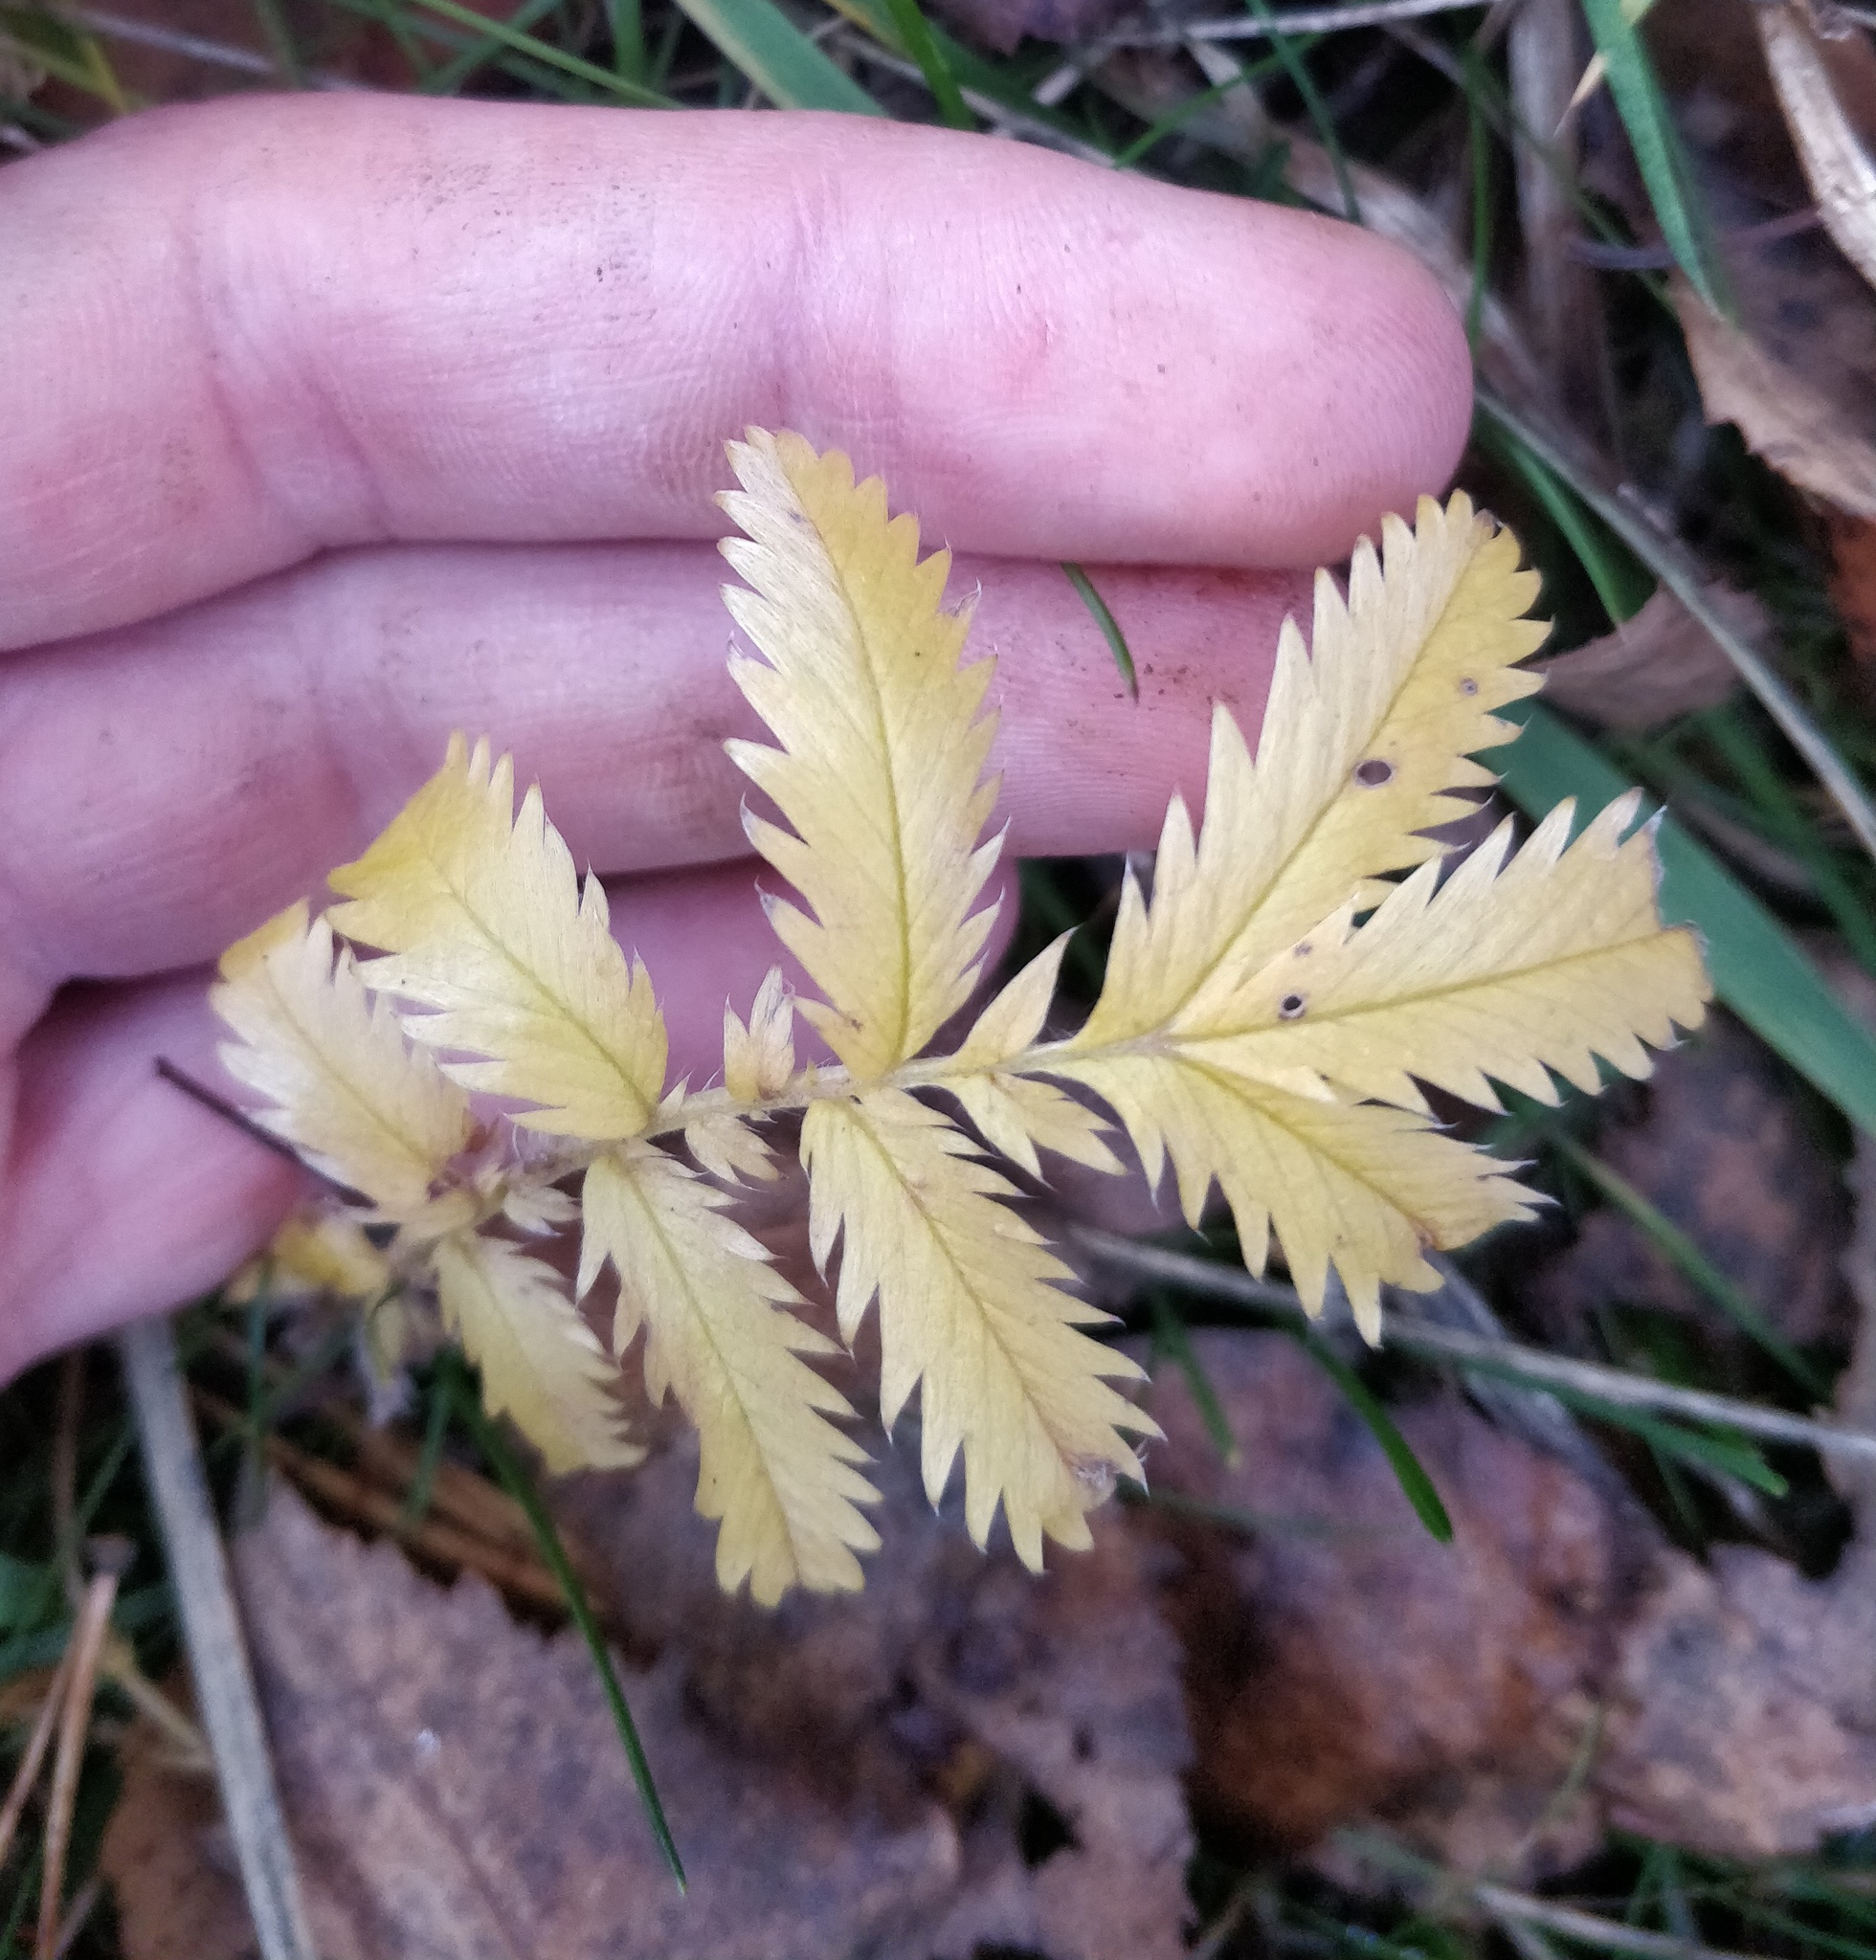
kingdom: Plantae
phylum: Tracheophyta
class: Magnoliopsida
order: Rosales
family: Rosaceae
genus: Argentina
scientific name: Argentina anserina
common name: Common silverweed
